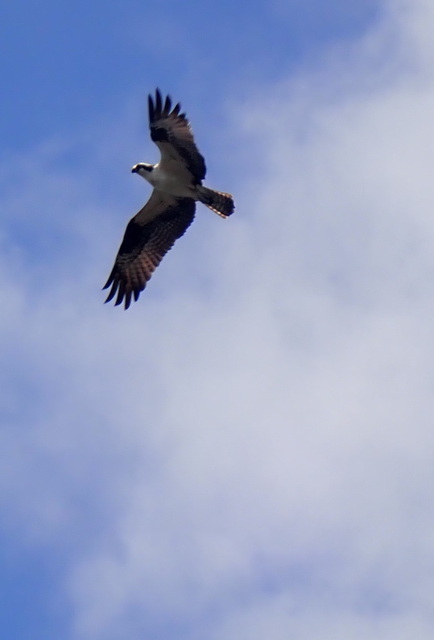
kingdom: Animalia
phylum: Chordata
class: Aves
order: Accipitriformes
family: Pandionidae
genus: Pandion
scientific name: Pandion haliaetus
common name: Osprey
